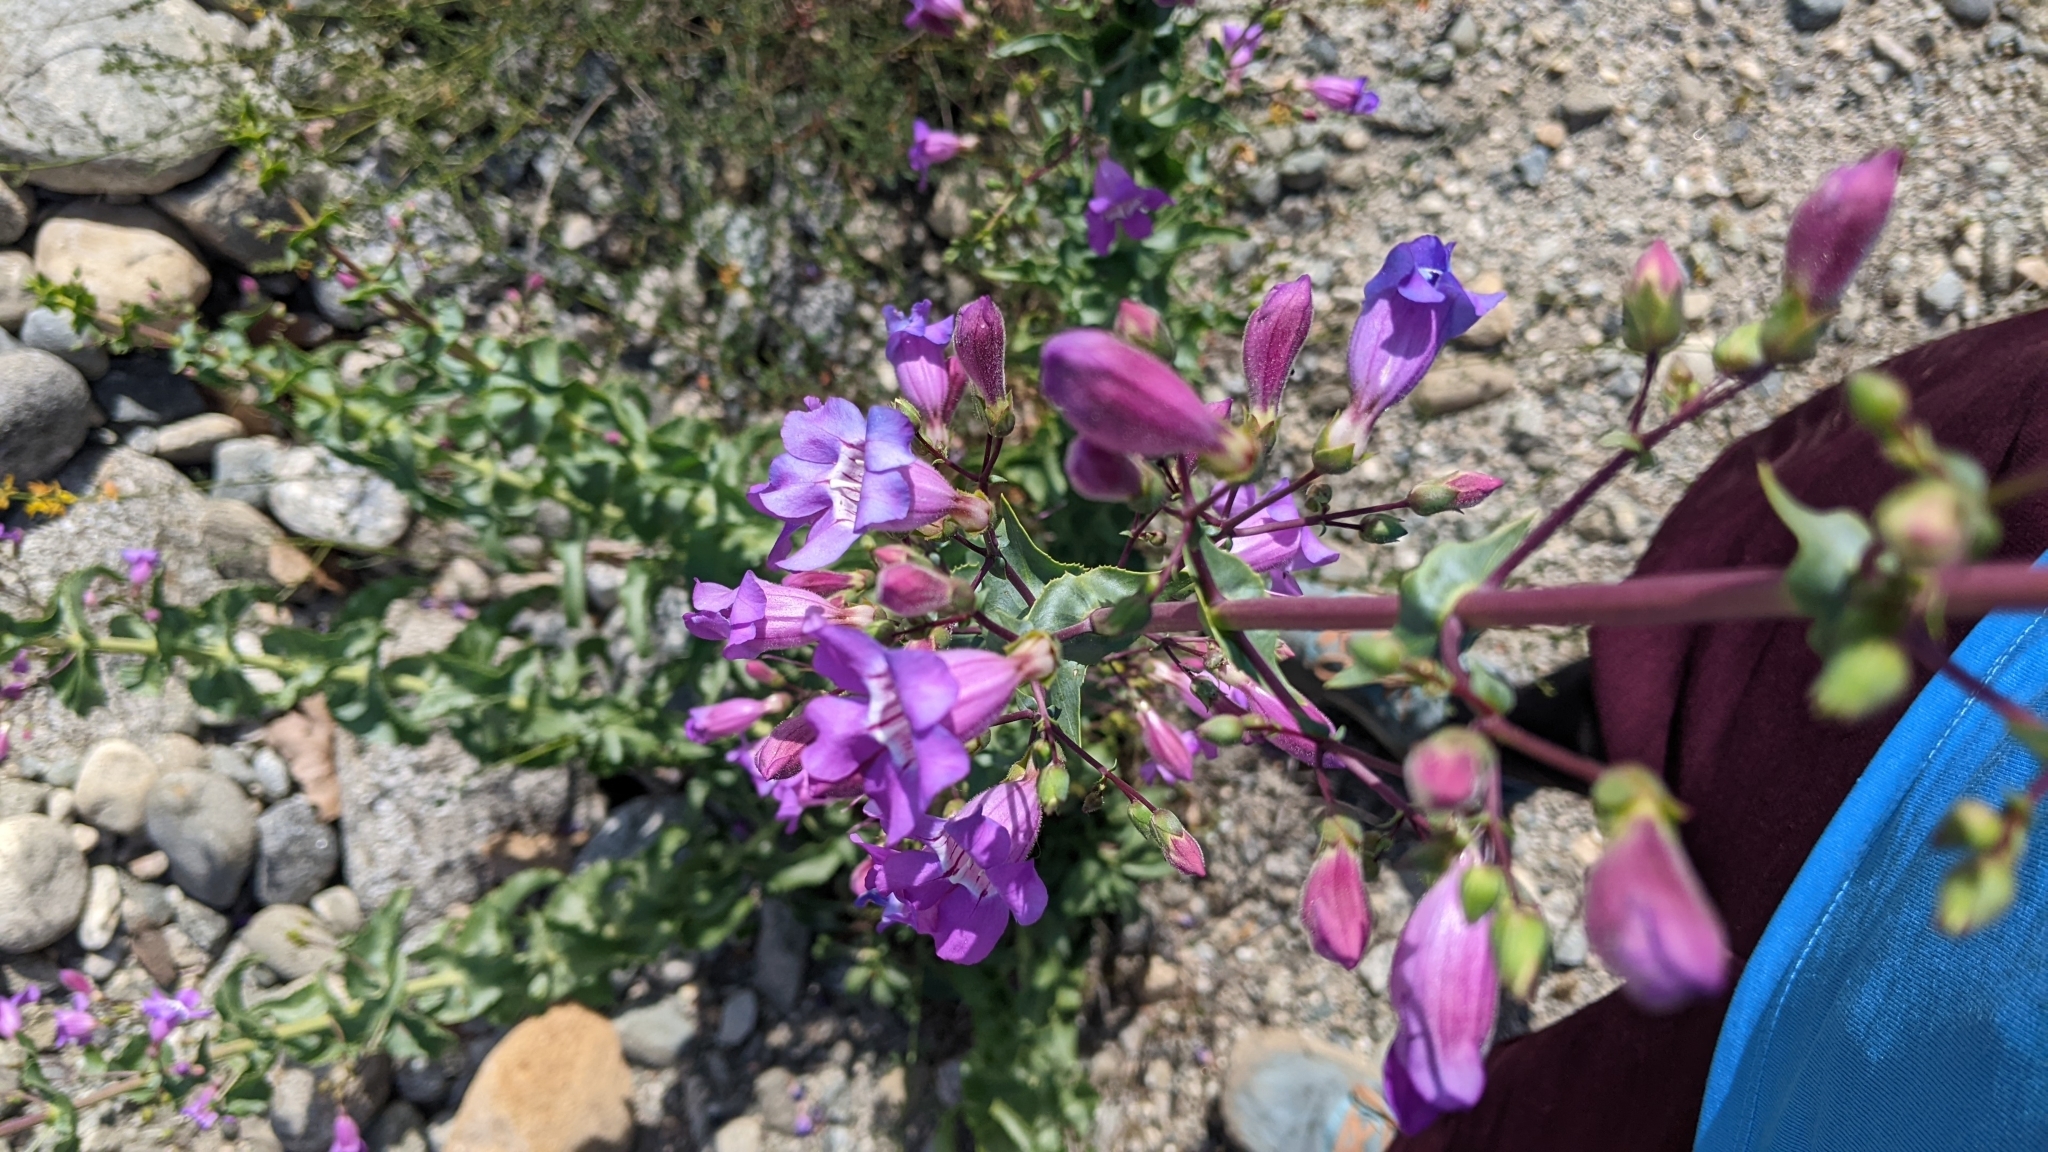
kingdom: Plantae
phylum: Tracheophyta
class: Magnoliopsida
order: Lamiales
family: Plantaginaceae
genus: Penstemon
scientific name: Penstemon spectabilis
